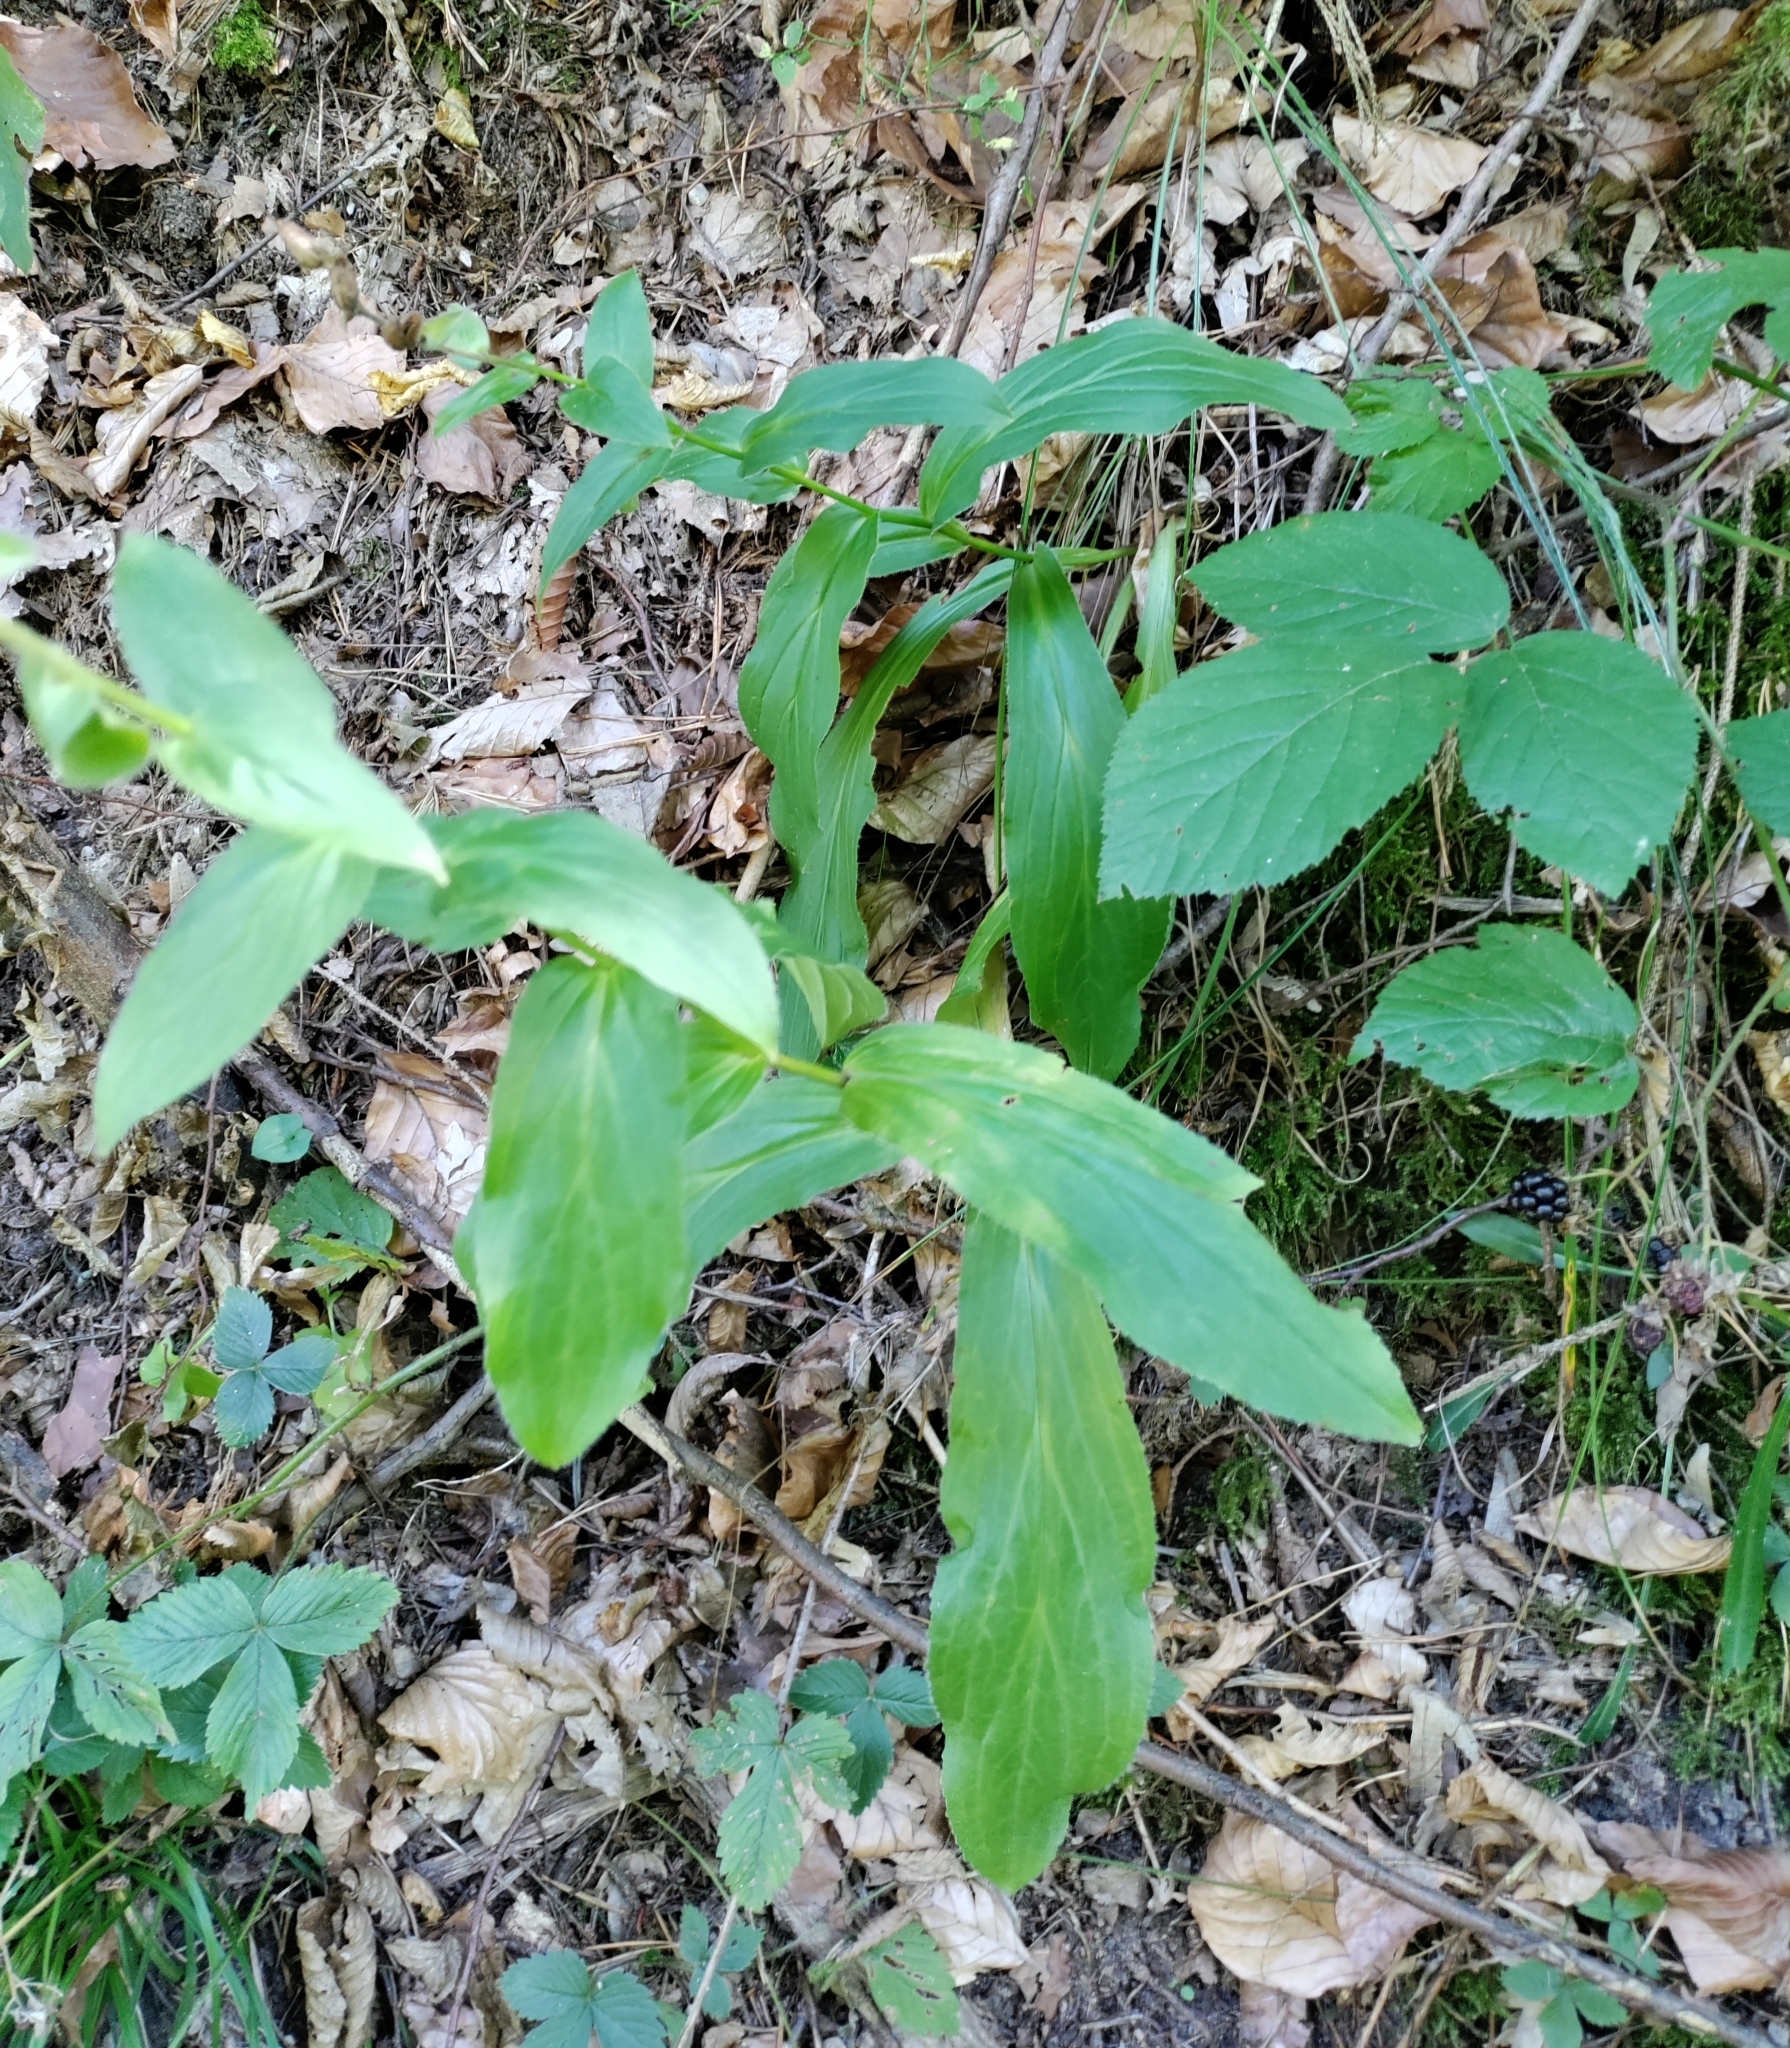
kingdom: Plantae
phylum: Tracheophyta
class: Magnoliopsida
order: Lamiales
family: Plantaginaceae
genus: Digitalis
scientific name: Digitalis grandiflora
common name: Yellow foxglove
